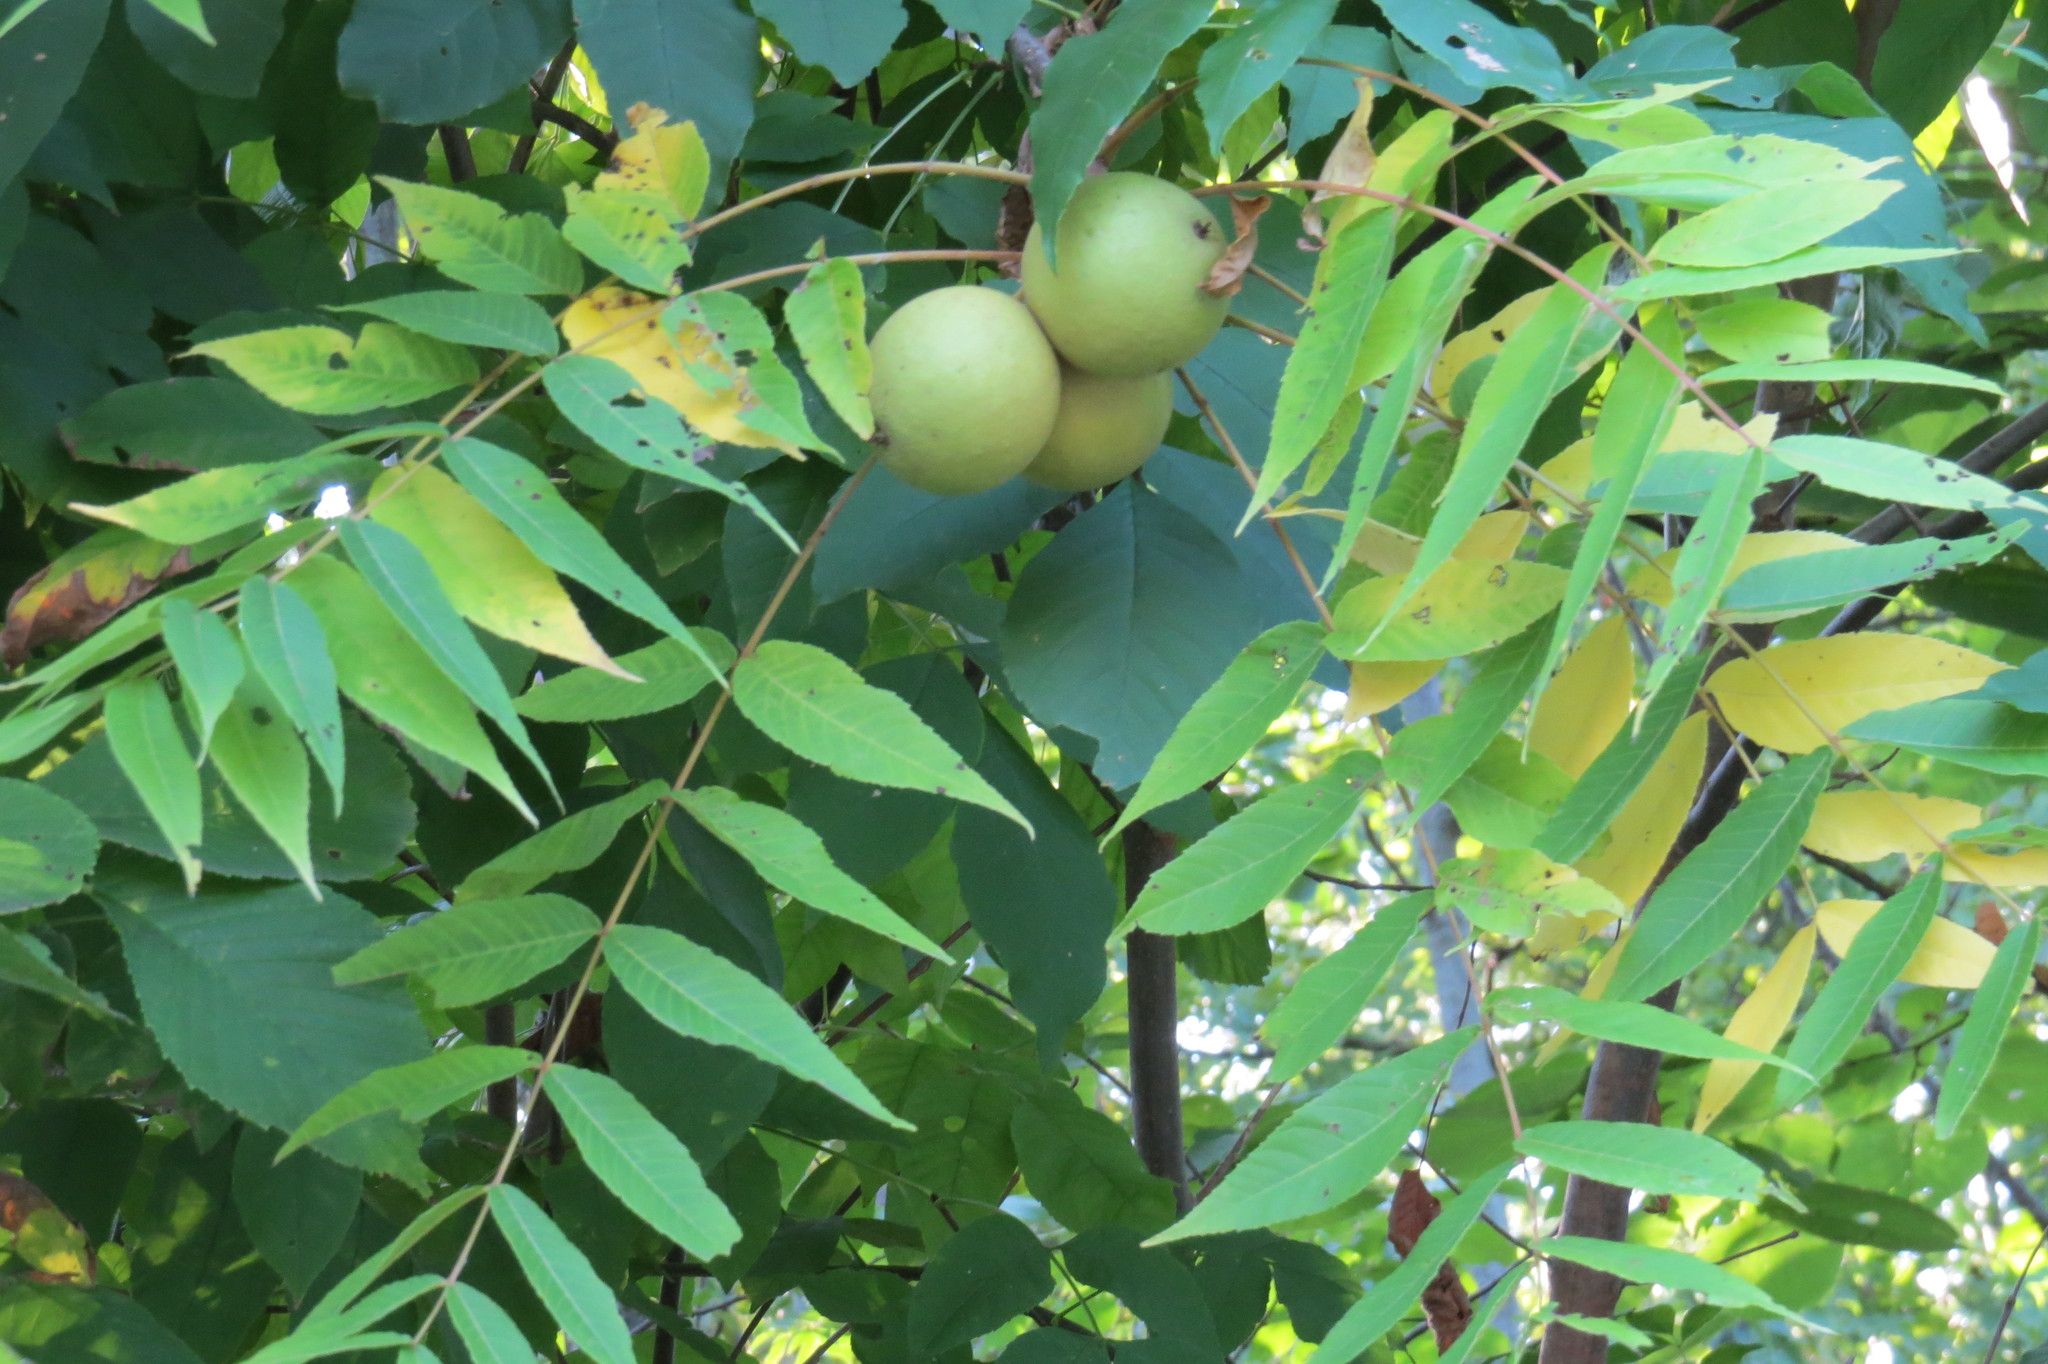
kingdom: Plantae
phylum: Tracheophyta
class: Magnoliopsida
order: Fagales
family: Juglandaceae
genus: Juglans
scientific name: Juglans nigra
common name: Black walnut
